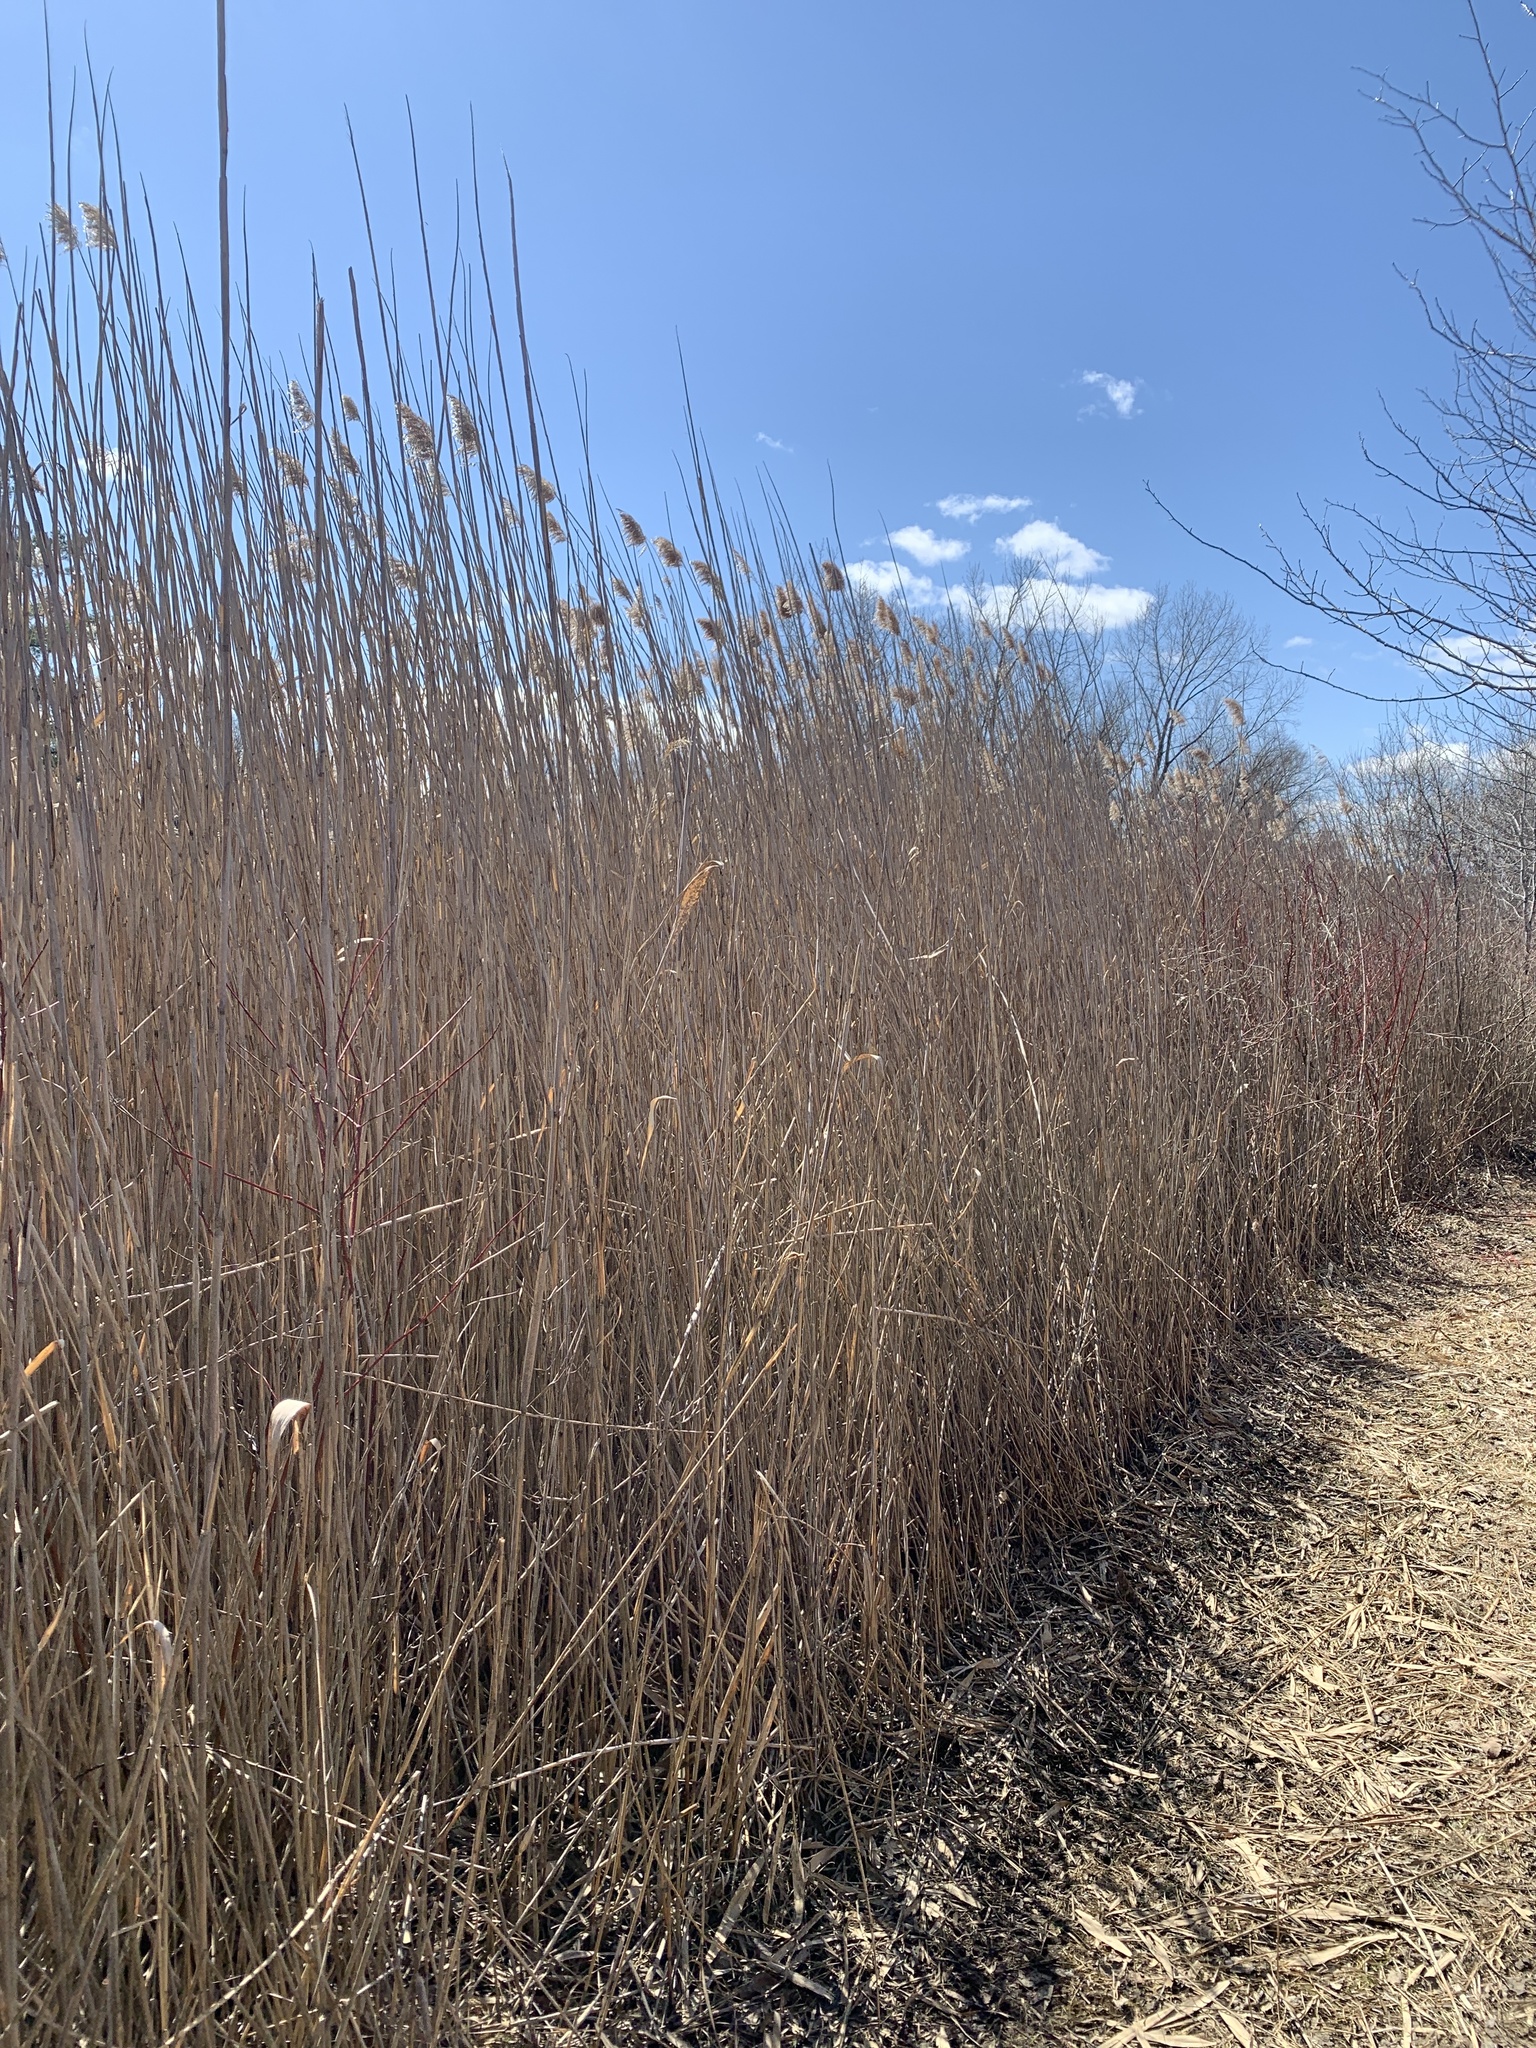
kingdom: Plantae
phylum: Tracheophyta
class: Liliopsida
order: Poales
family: Poaceae
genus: Phragmites
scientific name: Phragmites australis
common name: Common reed
